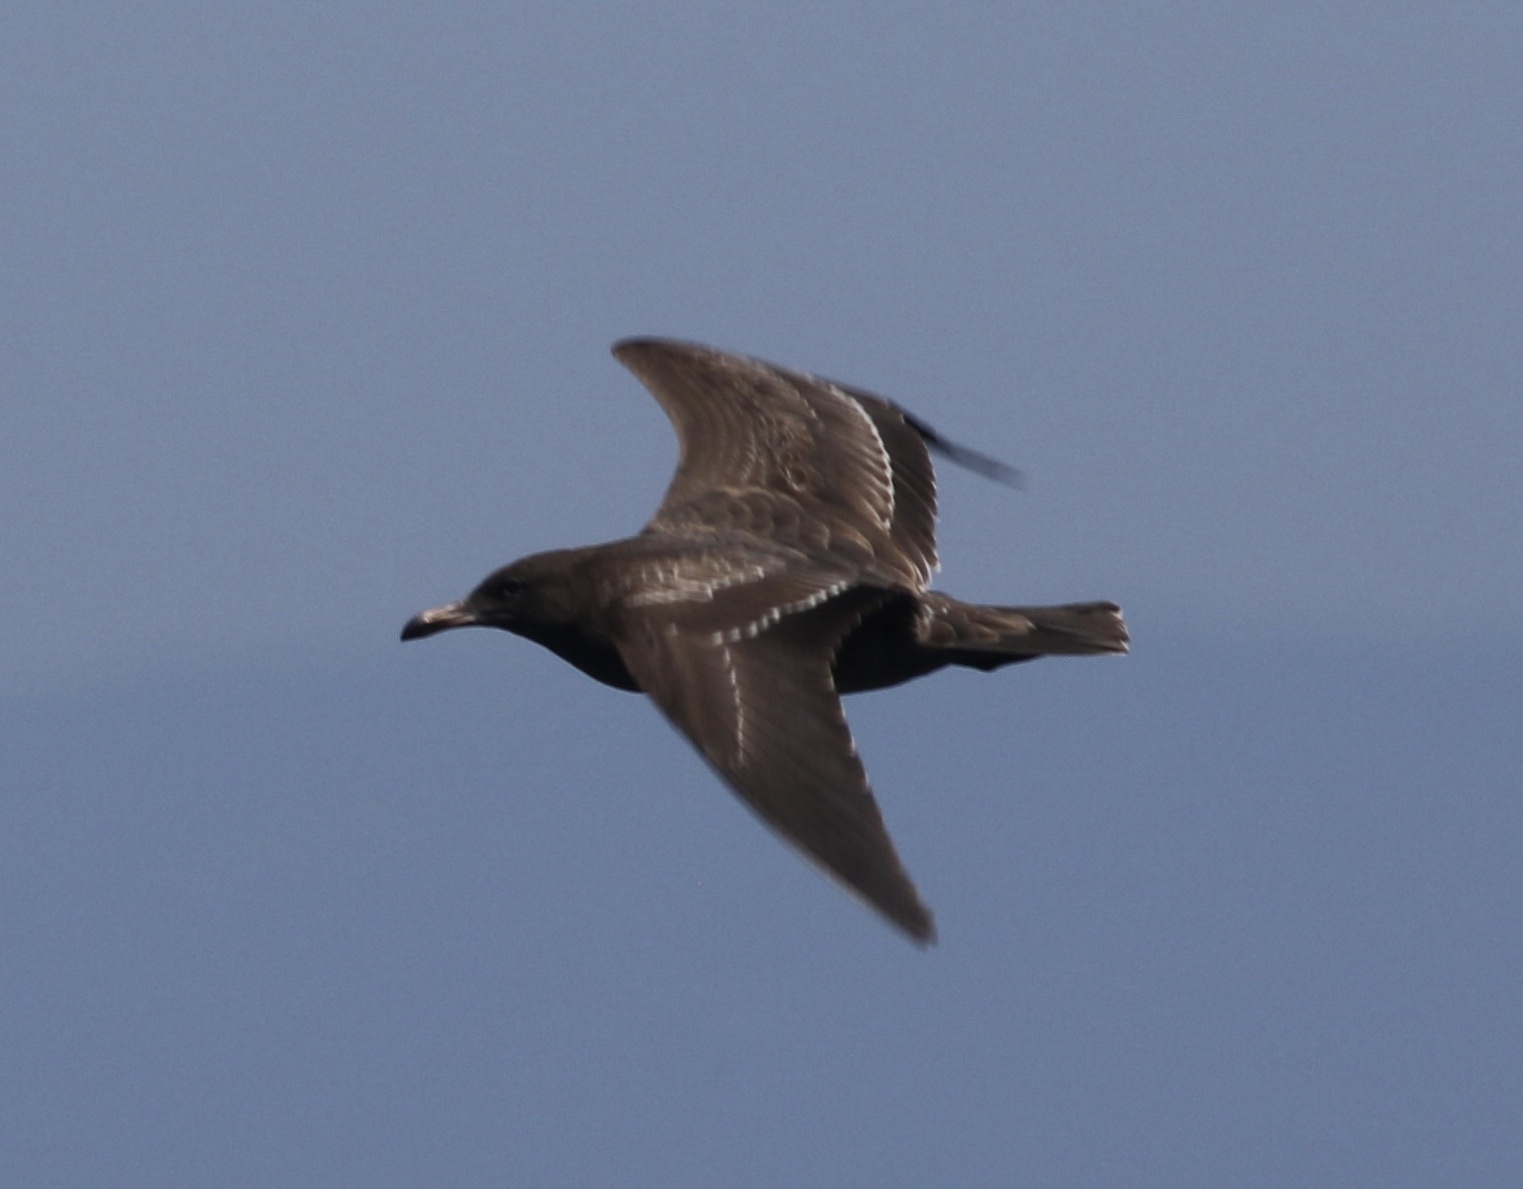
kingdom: Animalia
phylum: Chordata
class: Aves
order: Charadriiformes
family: Laridae
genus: Larus
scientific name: Larus heermanni
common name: Heermann's gull
